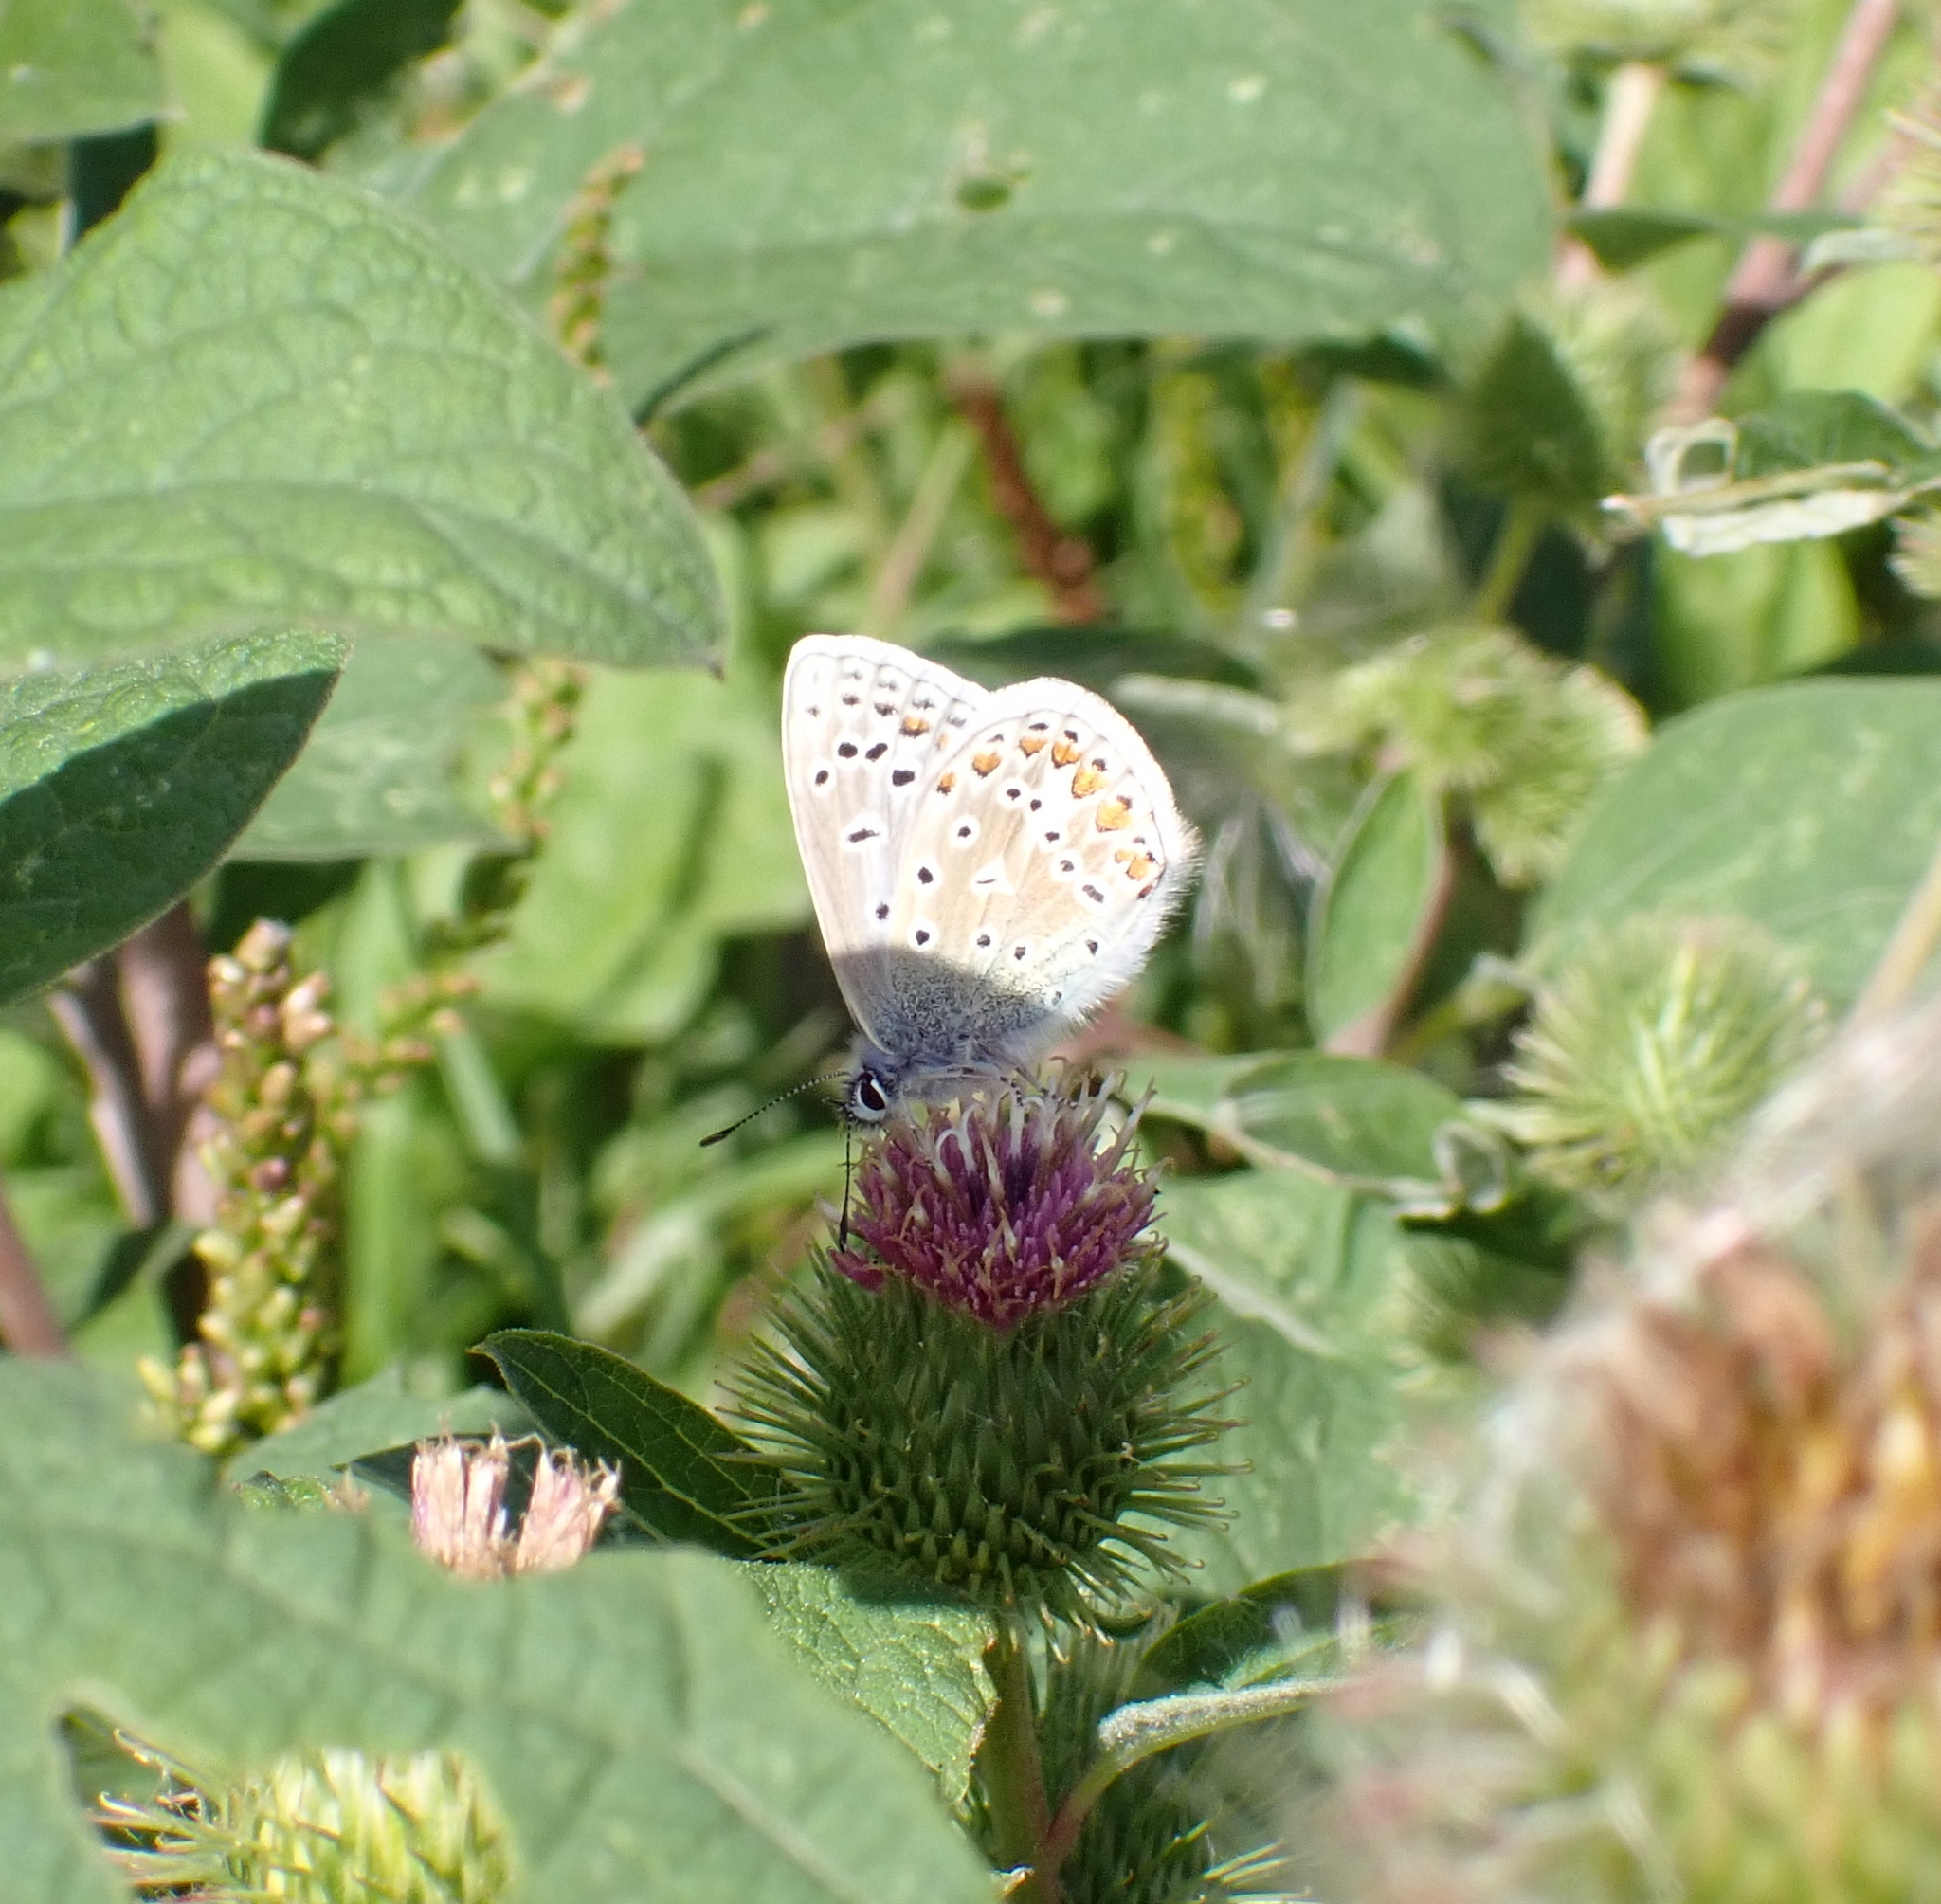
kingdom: Animalia
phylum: Arthropoda
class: Insecta
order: Lepidoptera
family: Lycaenidae
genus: Polyommatus
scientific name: Polyommatus icarus
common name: Common blue
